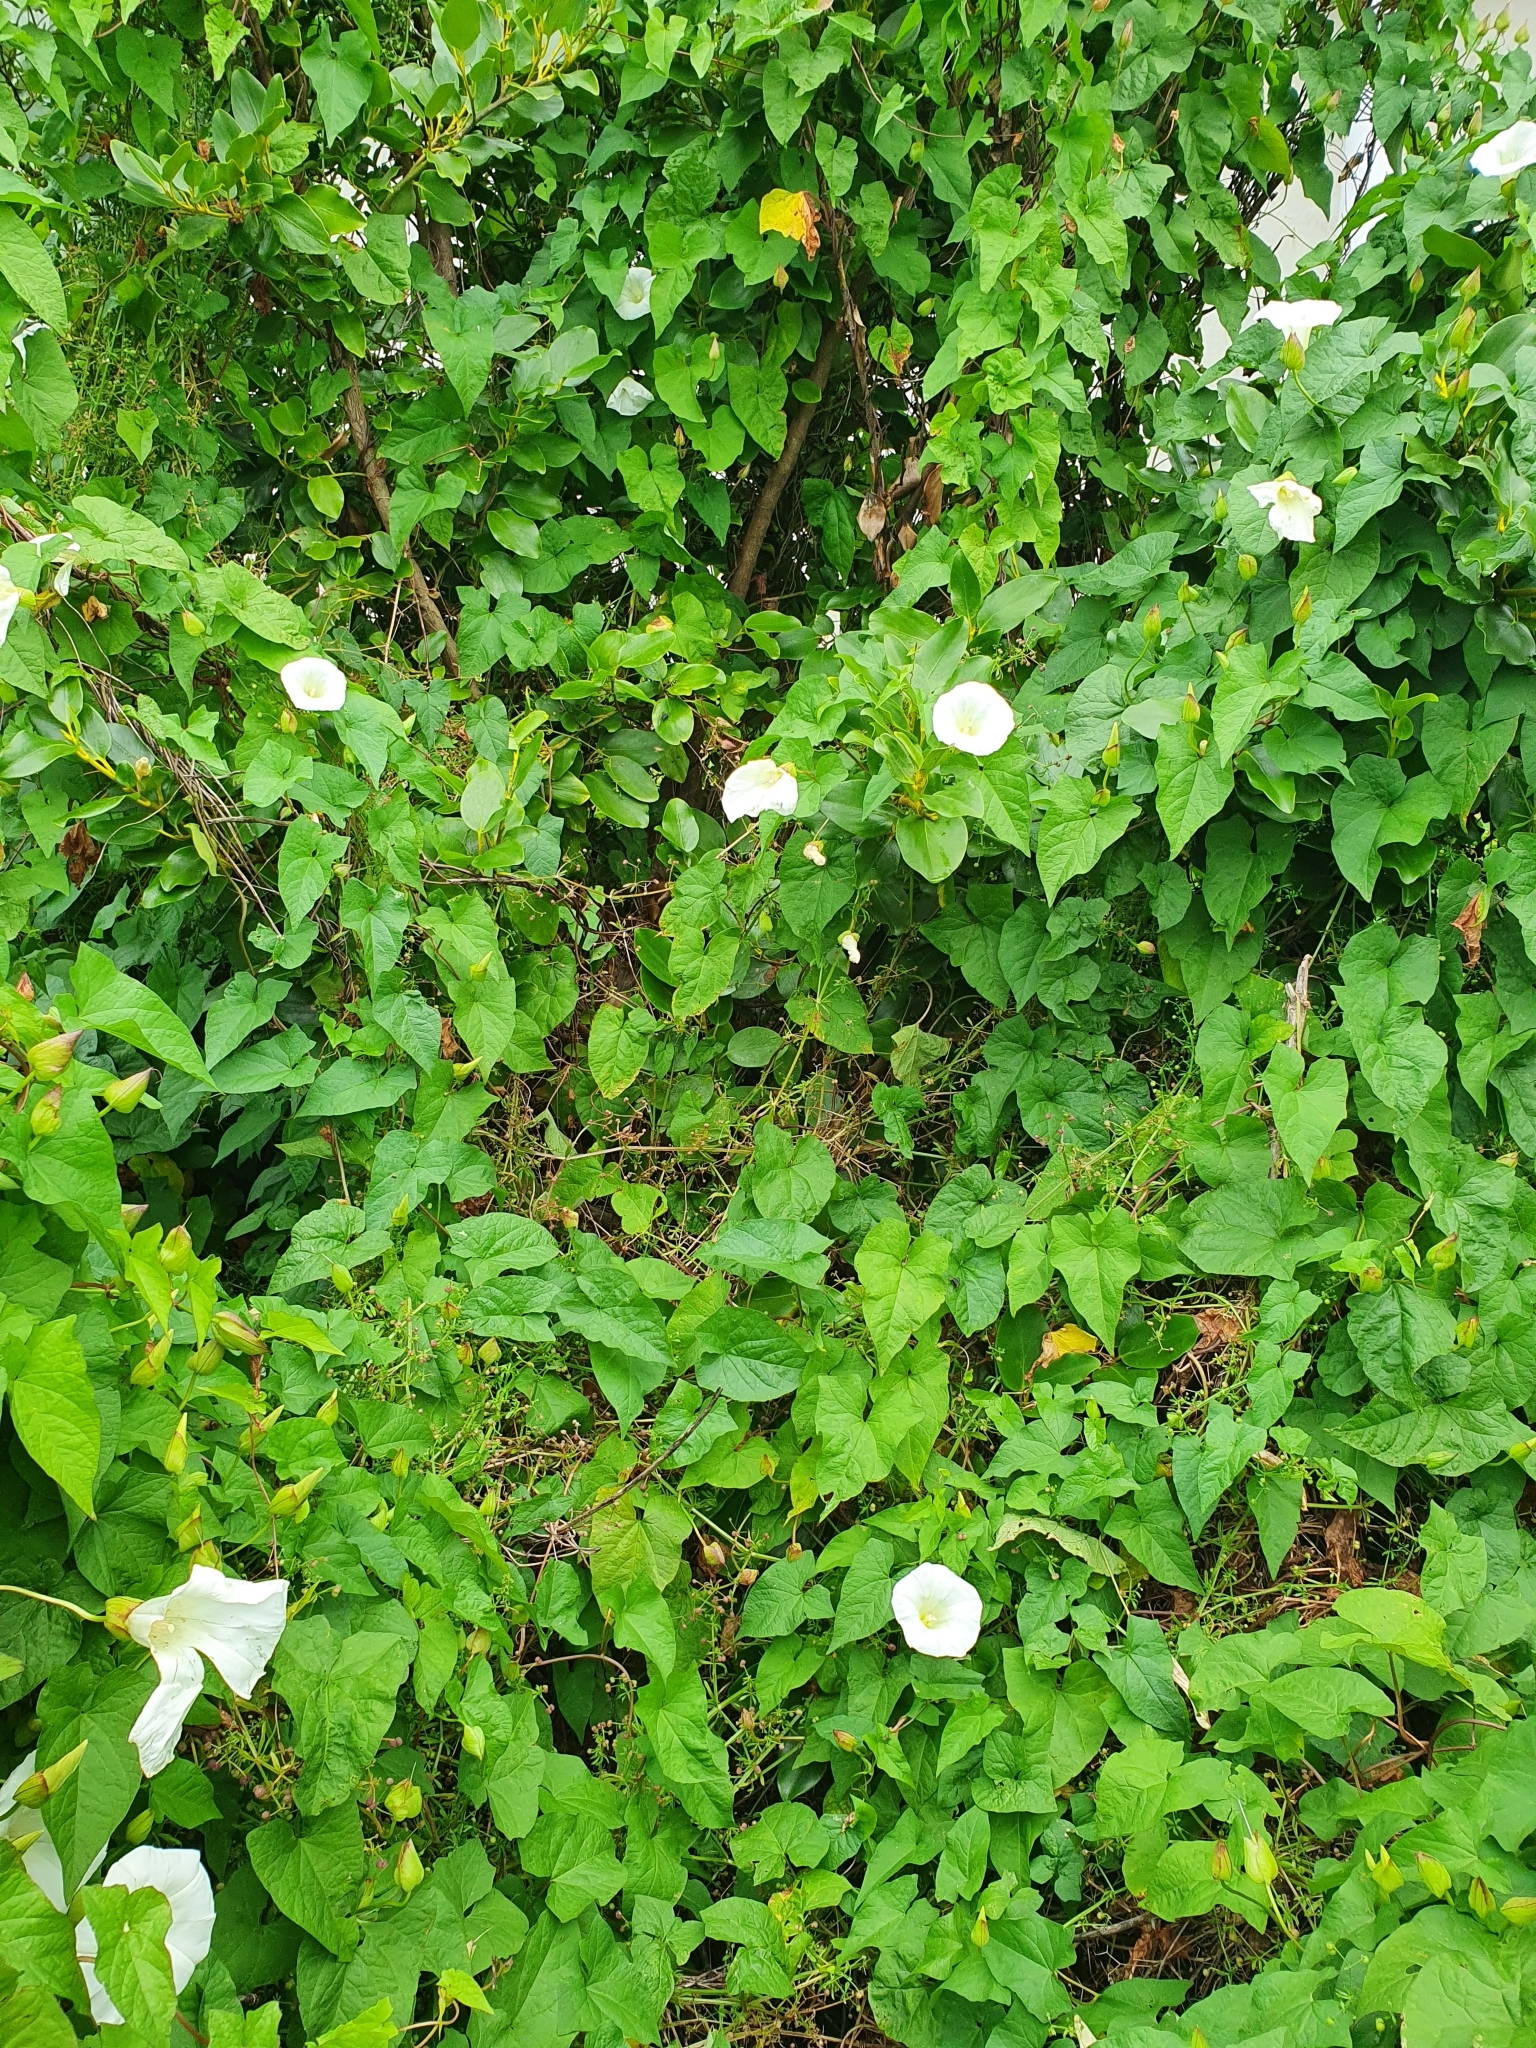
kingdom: Plantae
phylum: Tracheophyta
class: Magnoliopsida
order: Solanales
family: Convolvulaceae
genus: Calystegia
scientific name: Calystegia silvatica
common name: Large bindweed
